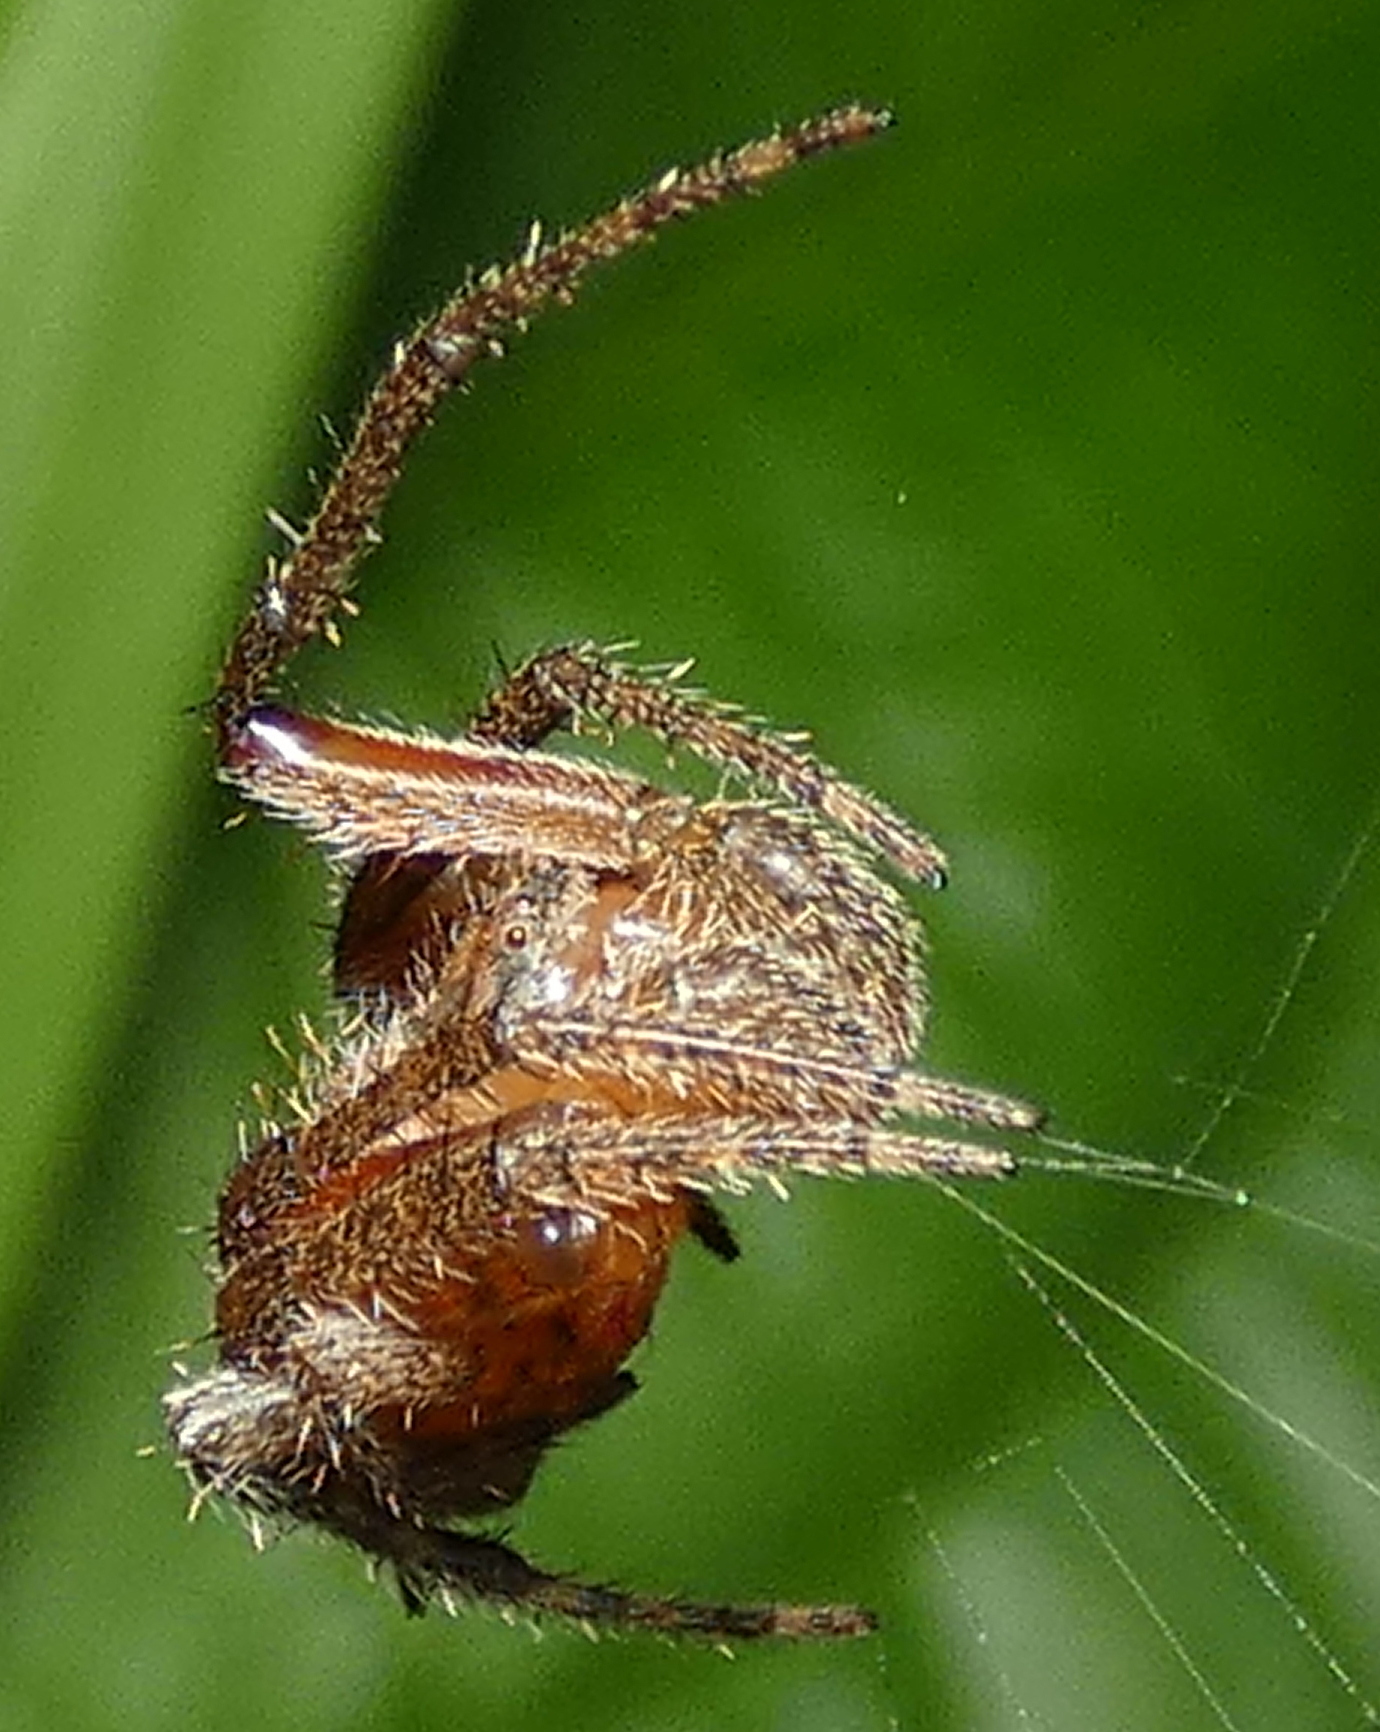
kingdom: Animalia
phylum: Arthropoda
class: Arachnida
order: Araneae
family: Araneidae
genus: Eriophora
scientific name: Eriophora edax
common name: Orb weavers
